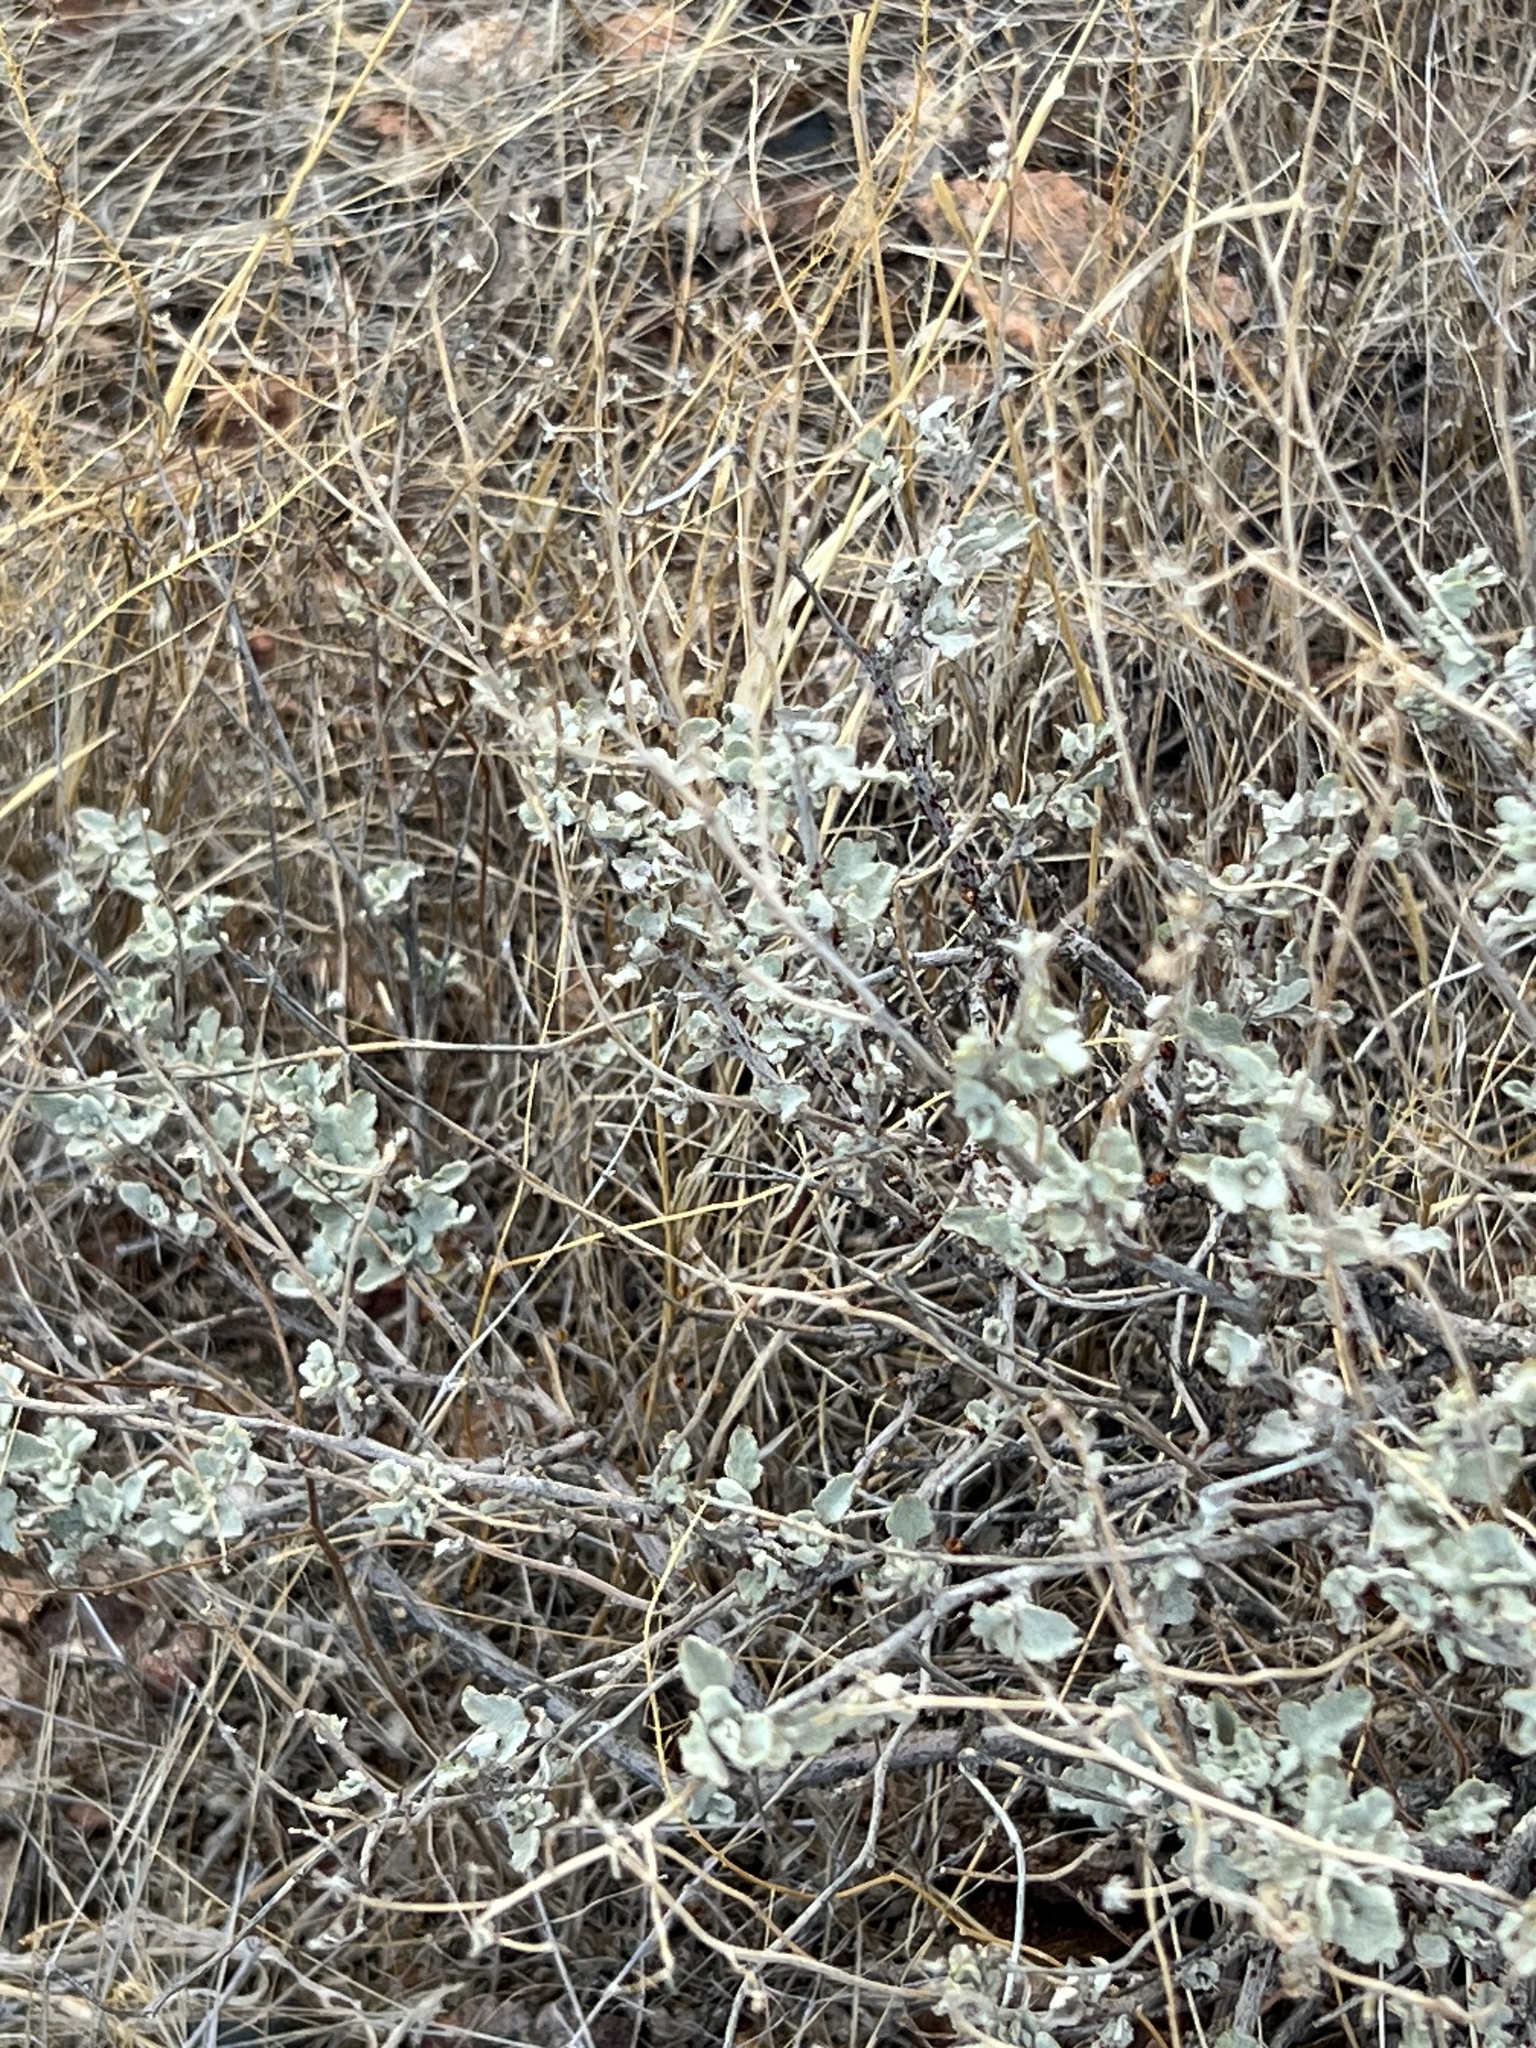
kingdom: Plantae
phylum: Tracheophyta
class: Magnoliopsida
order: Asterales
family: Asteraceae
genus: Parthenium
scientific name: Parthenium incanum
